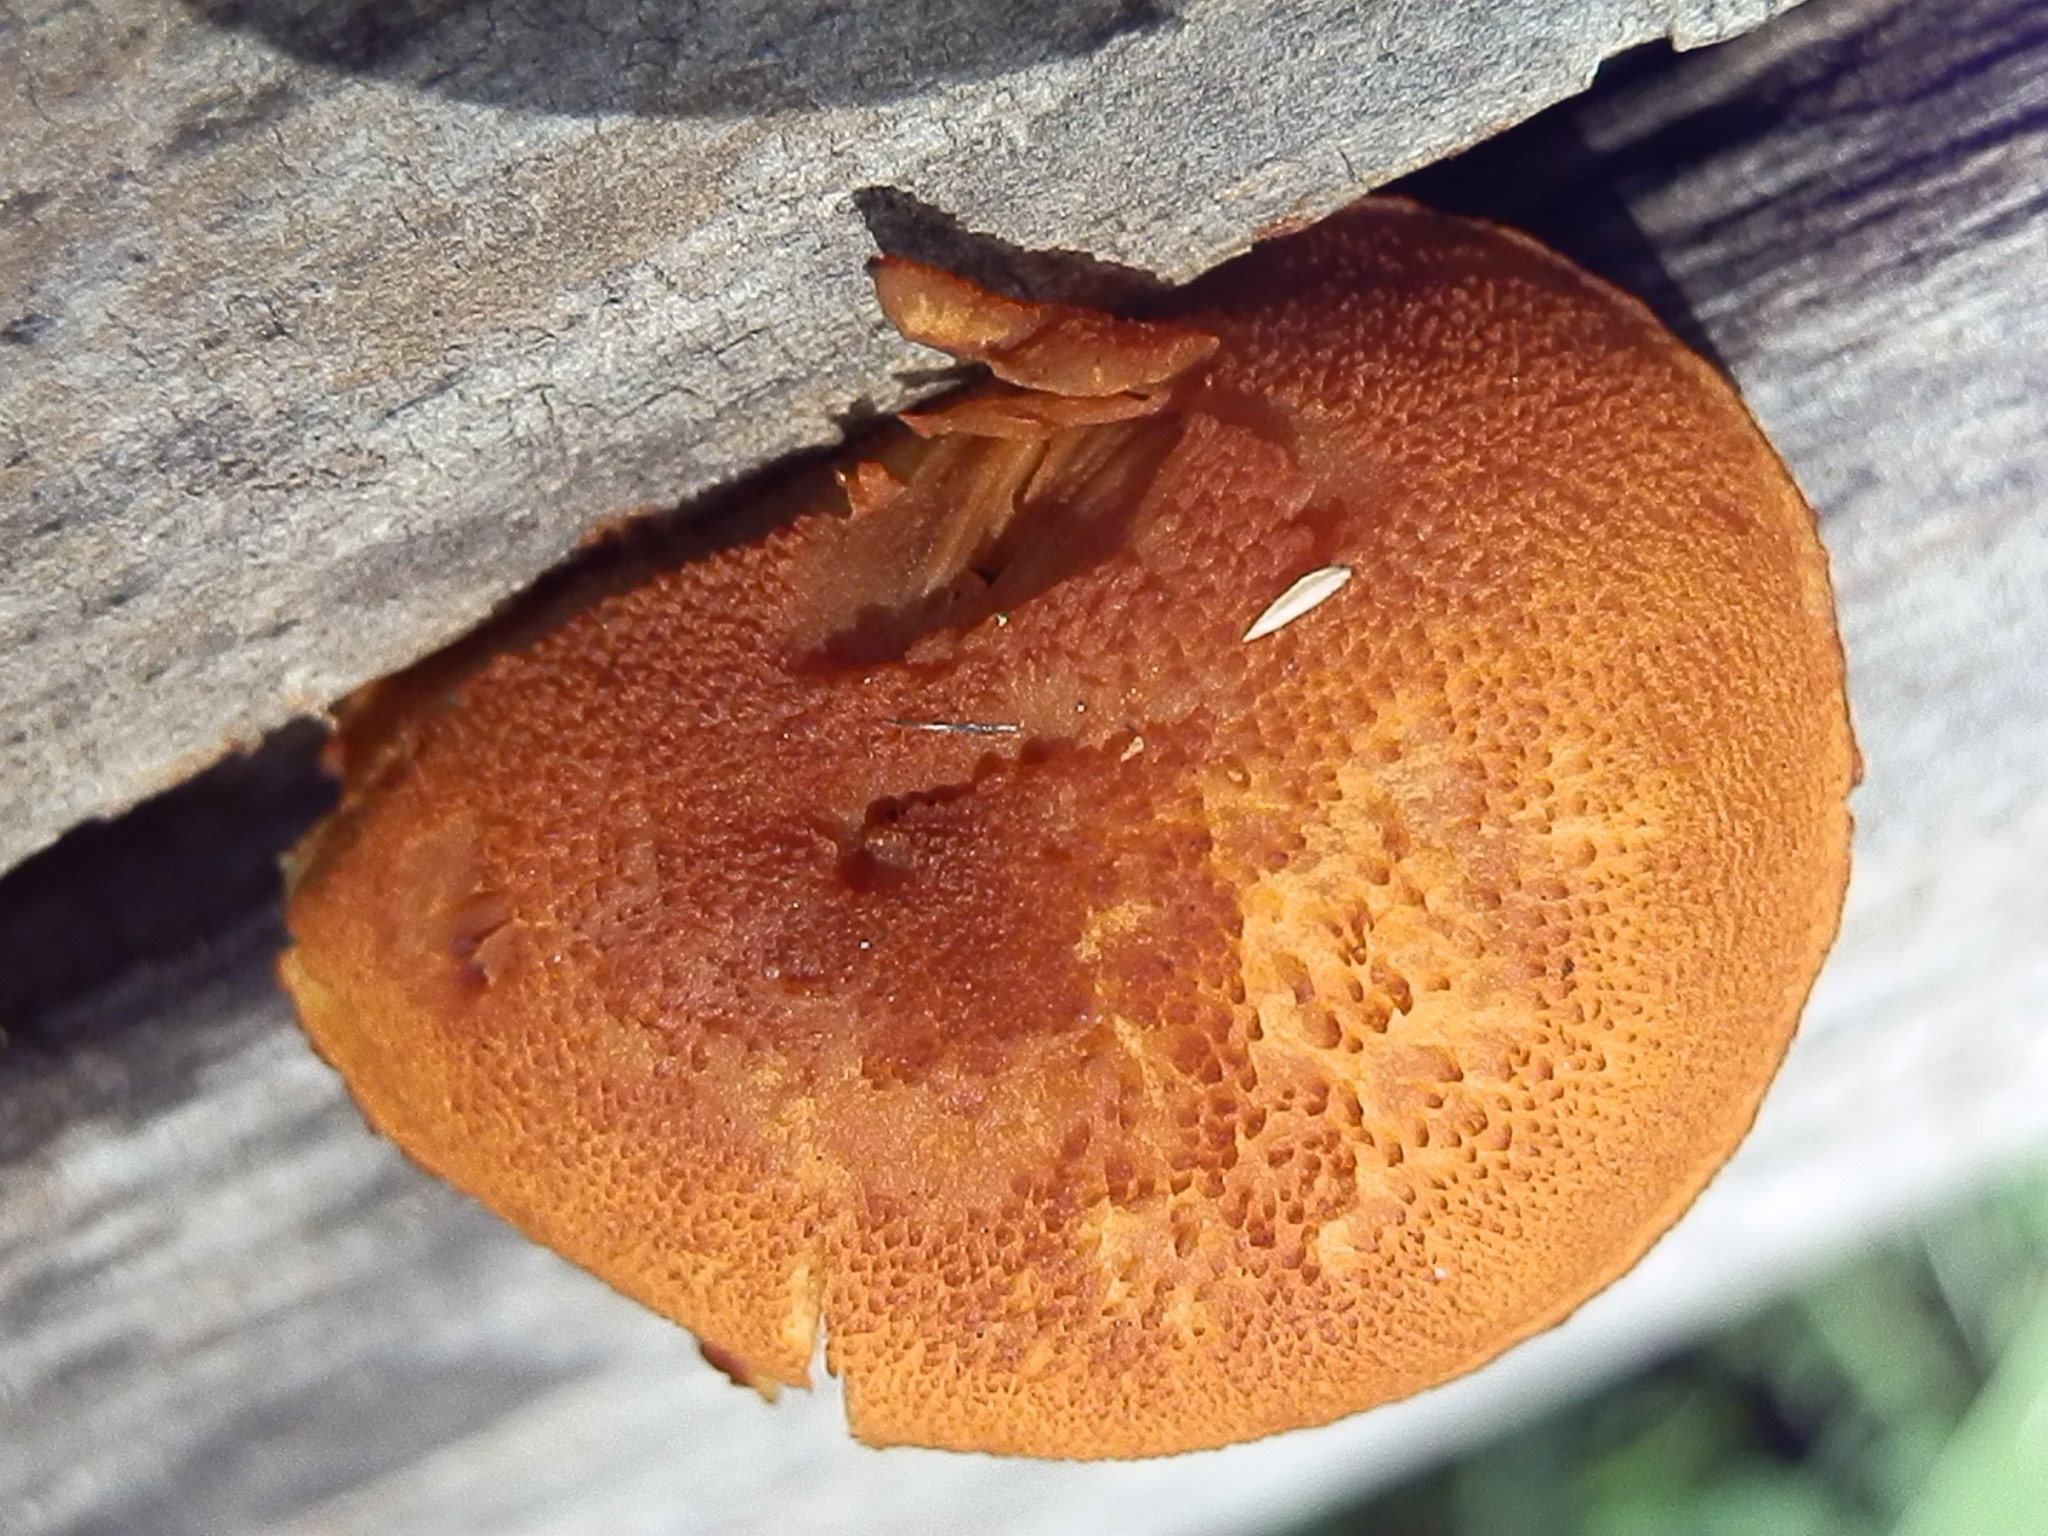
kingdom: Fungi
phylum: Basidiomycota
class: Agaricomycetes
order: Agaricales
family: Tubariaceae
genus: Phaeomarasmius
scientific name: Phaeomarasmius proximans
